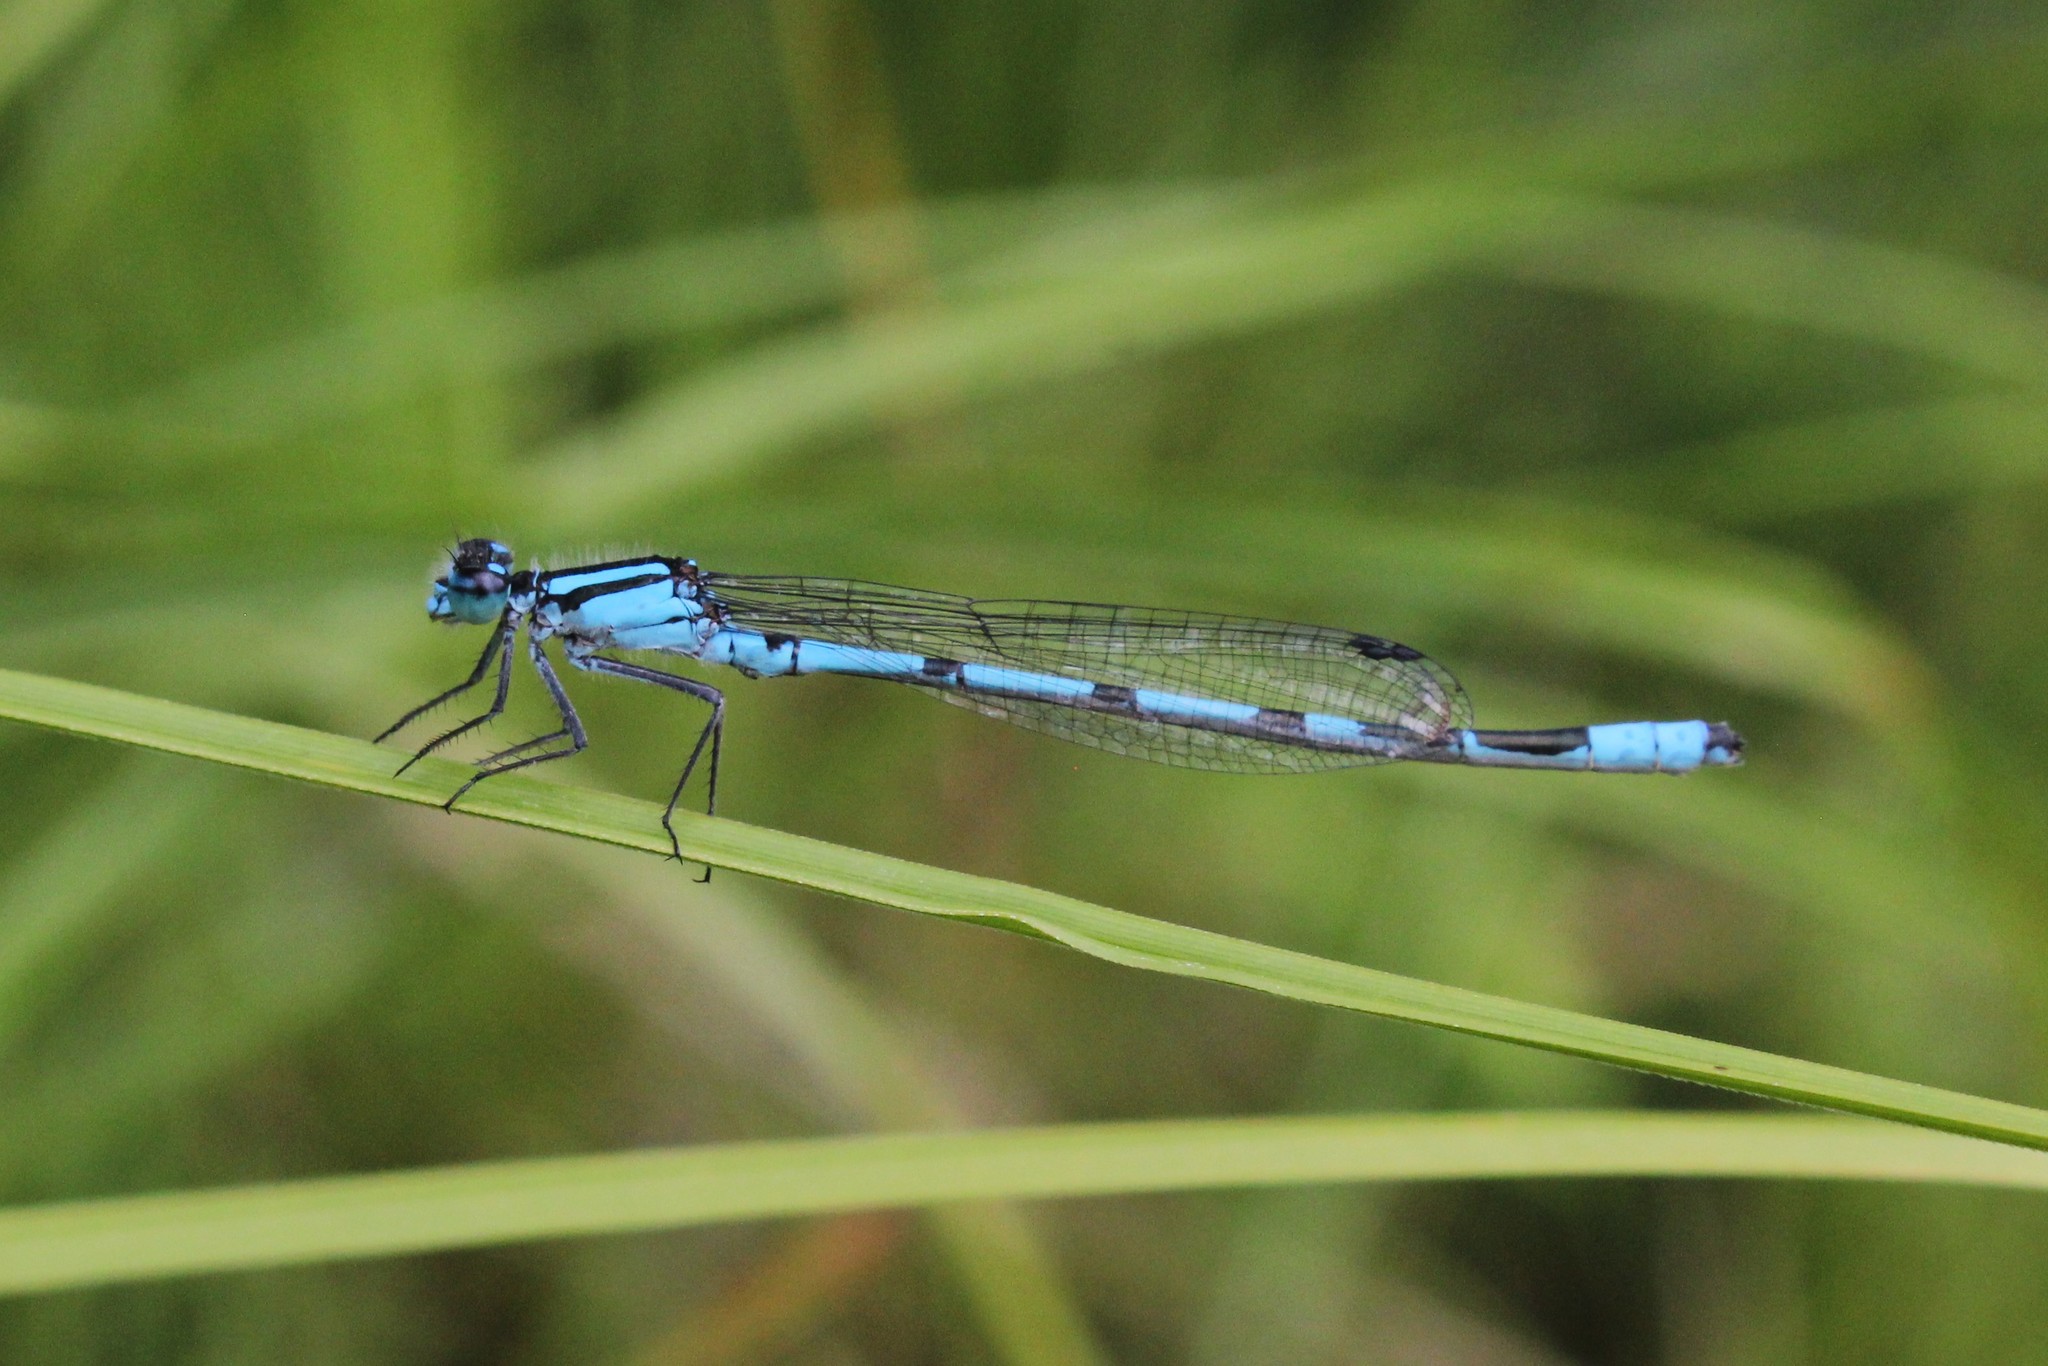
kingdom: Animalia
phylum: Arthropoda
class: Insecta
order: Odonata
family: Coenagrionidae
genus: Enallagma
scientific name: Enallagma ebrium
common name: Marsh bluet
